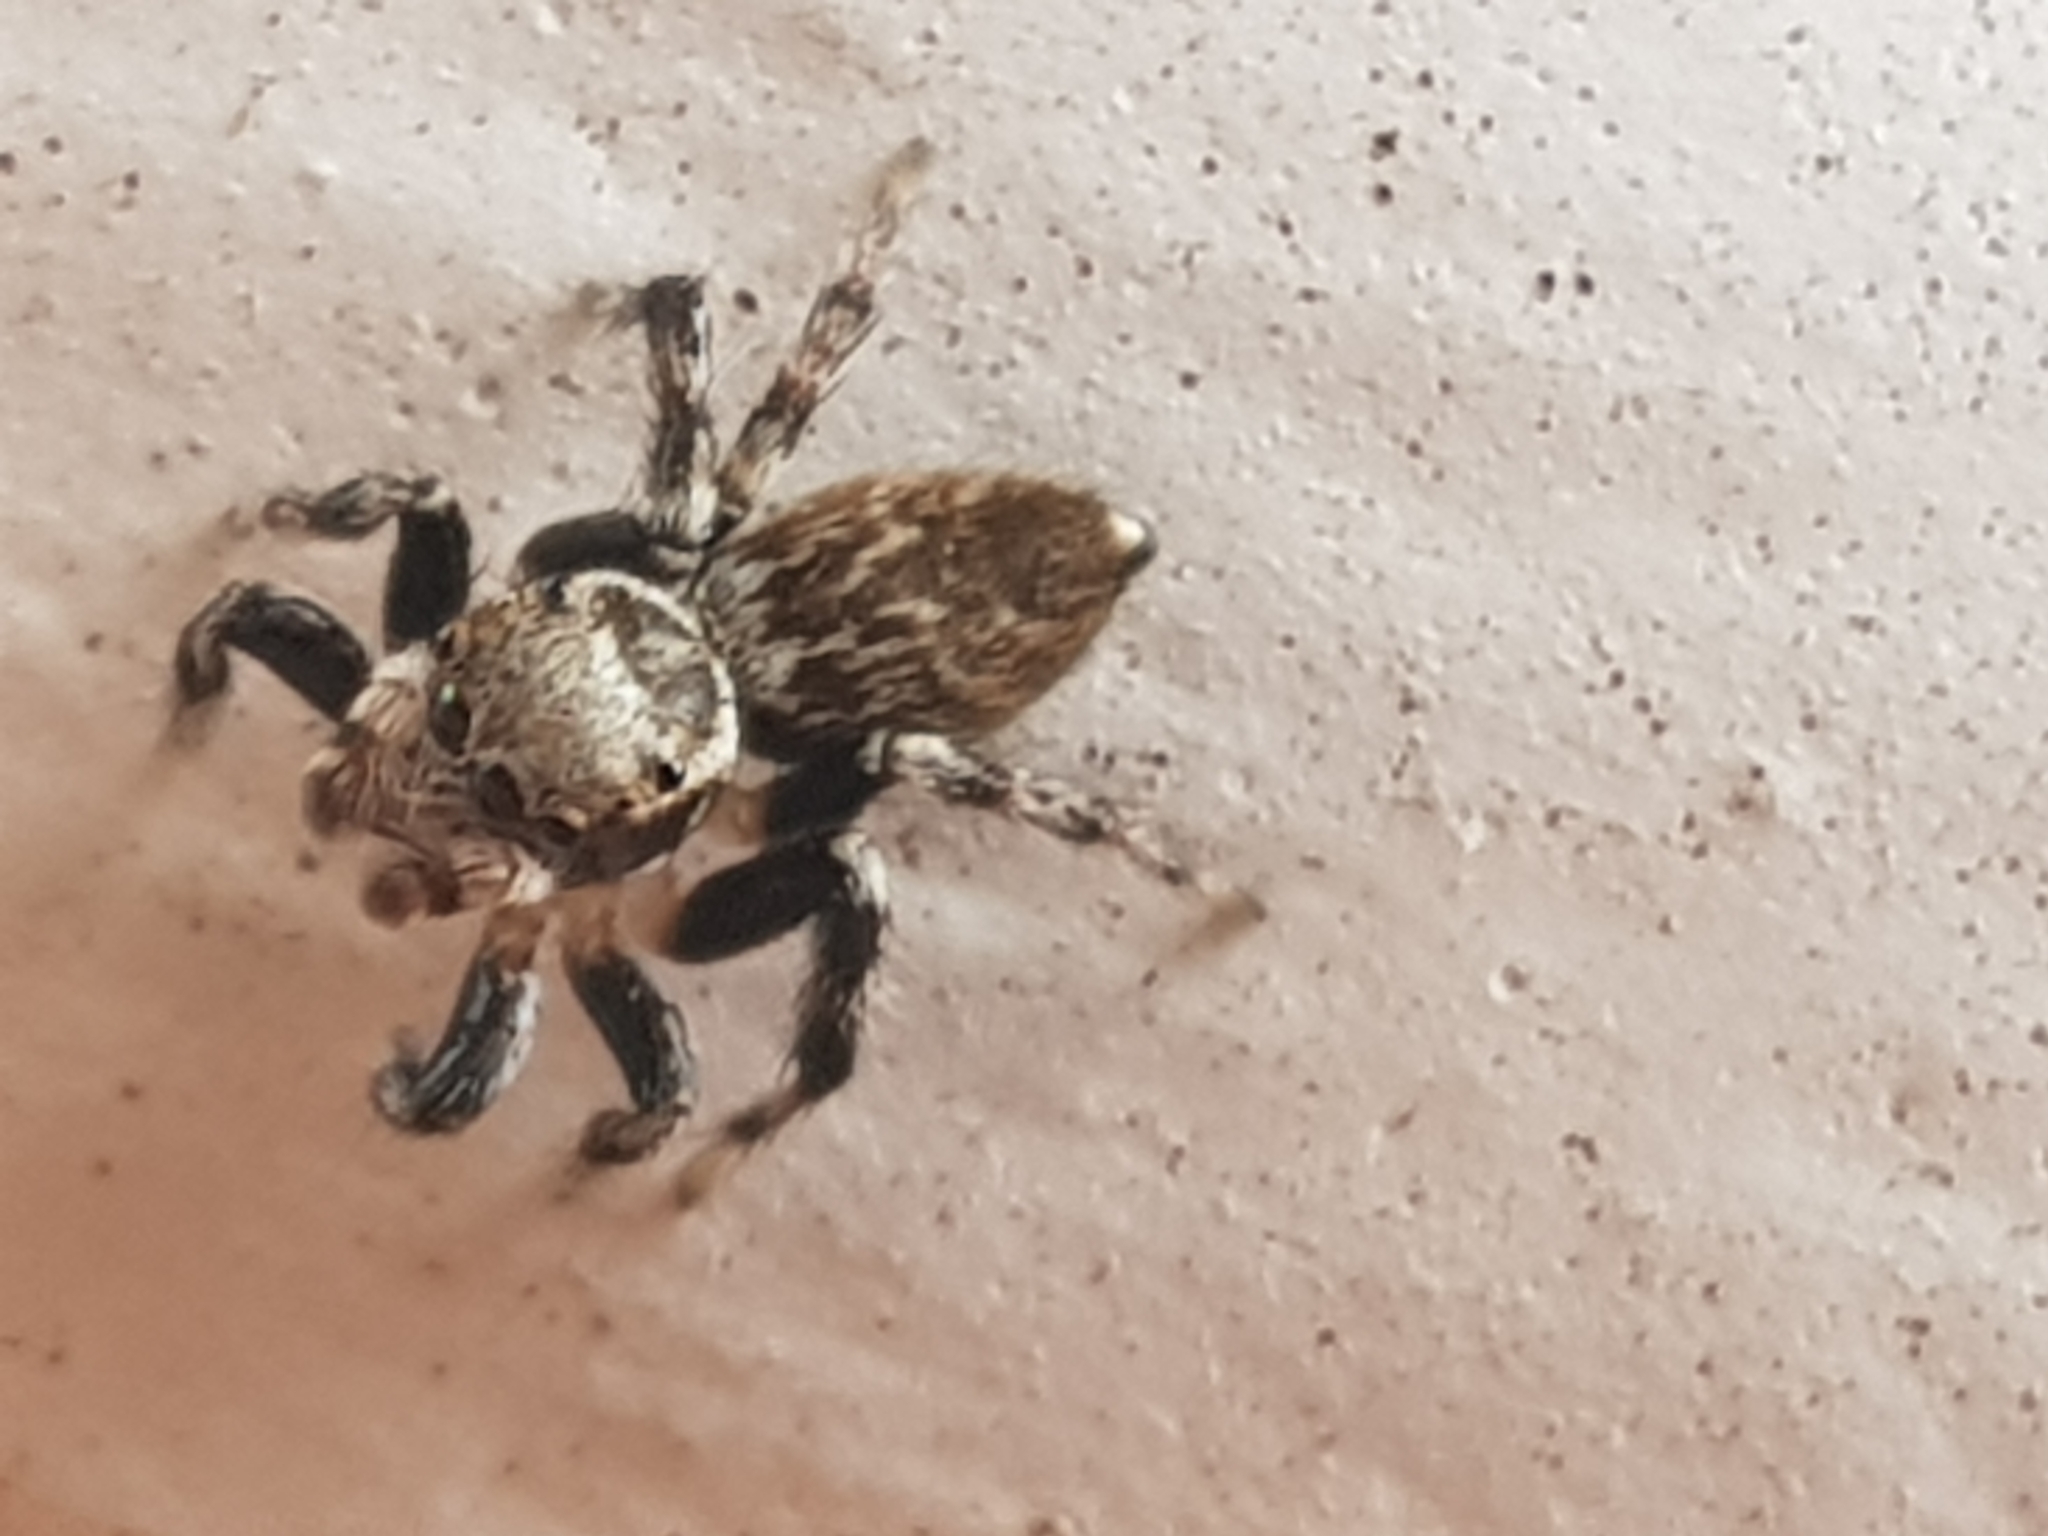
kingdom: Animalia
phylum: Arthropoda
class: Arachnida
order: Araneae
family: Salticidae
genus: Maratus
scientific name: Maratus griseus
